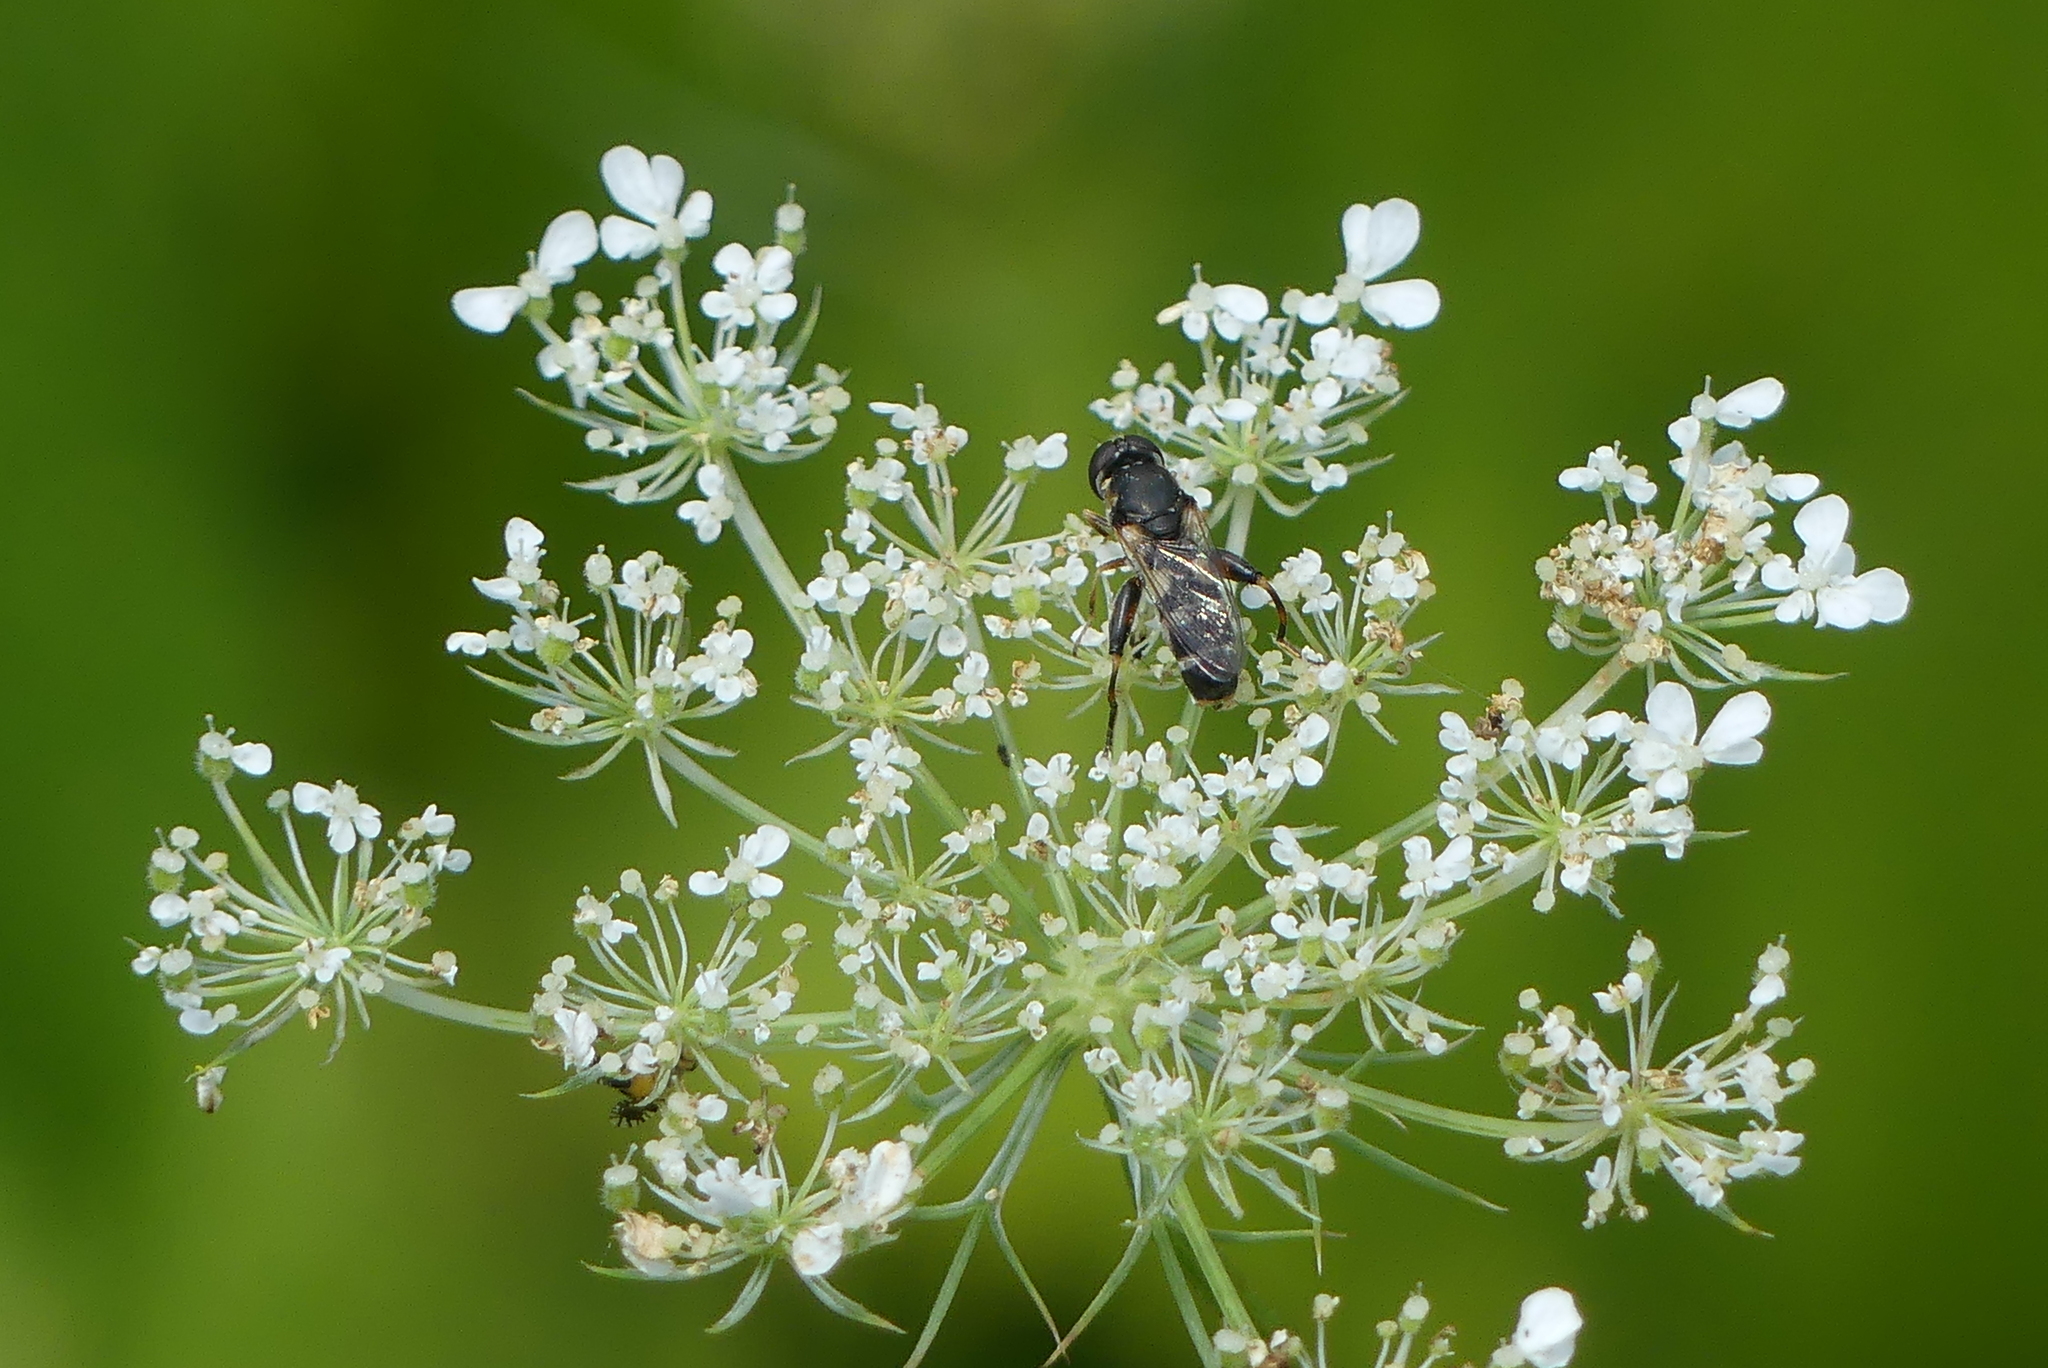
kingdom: Animalia
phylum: Arthropoda
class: Insecta
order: Diptera
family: Syrphidae
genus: Syritta
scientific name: Syritta pipiens
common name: Hover fly
